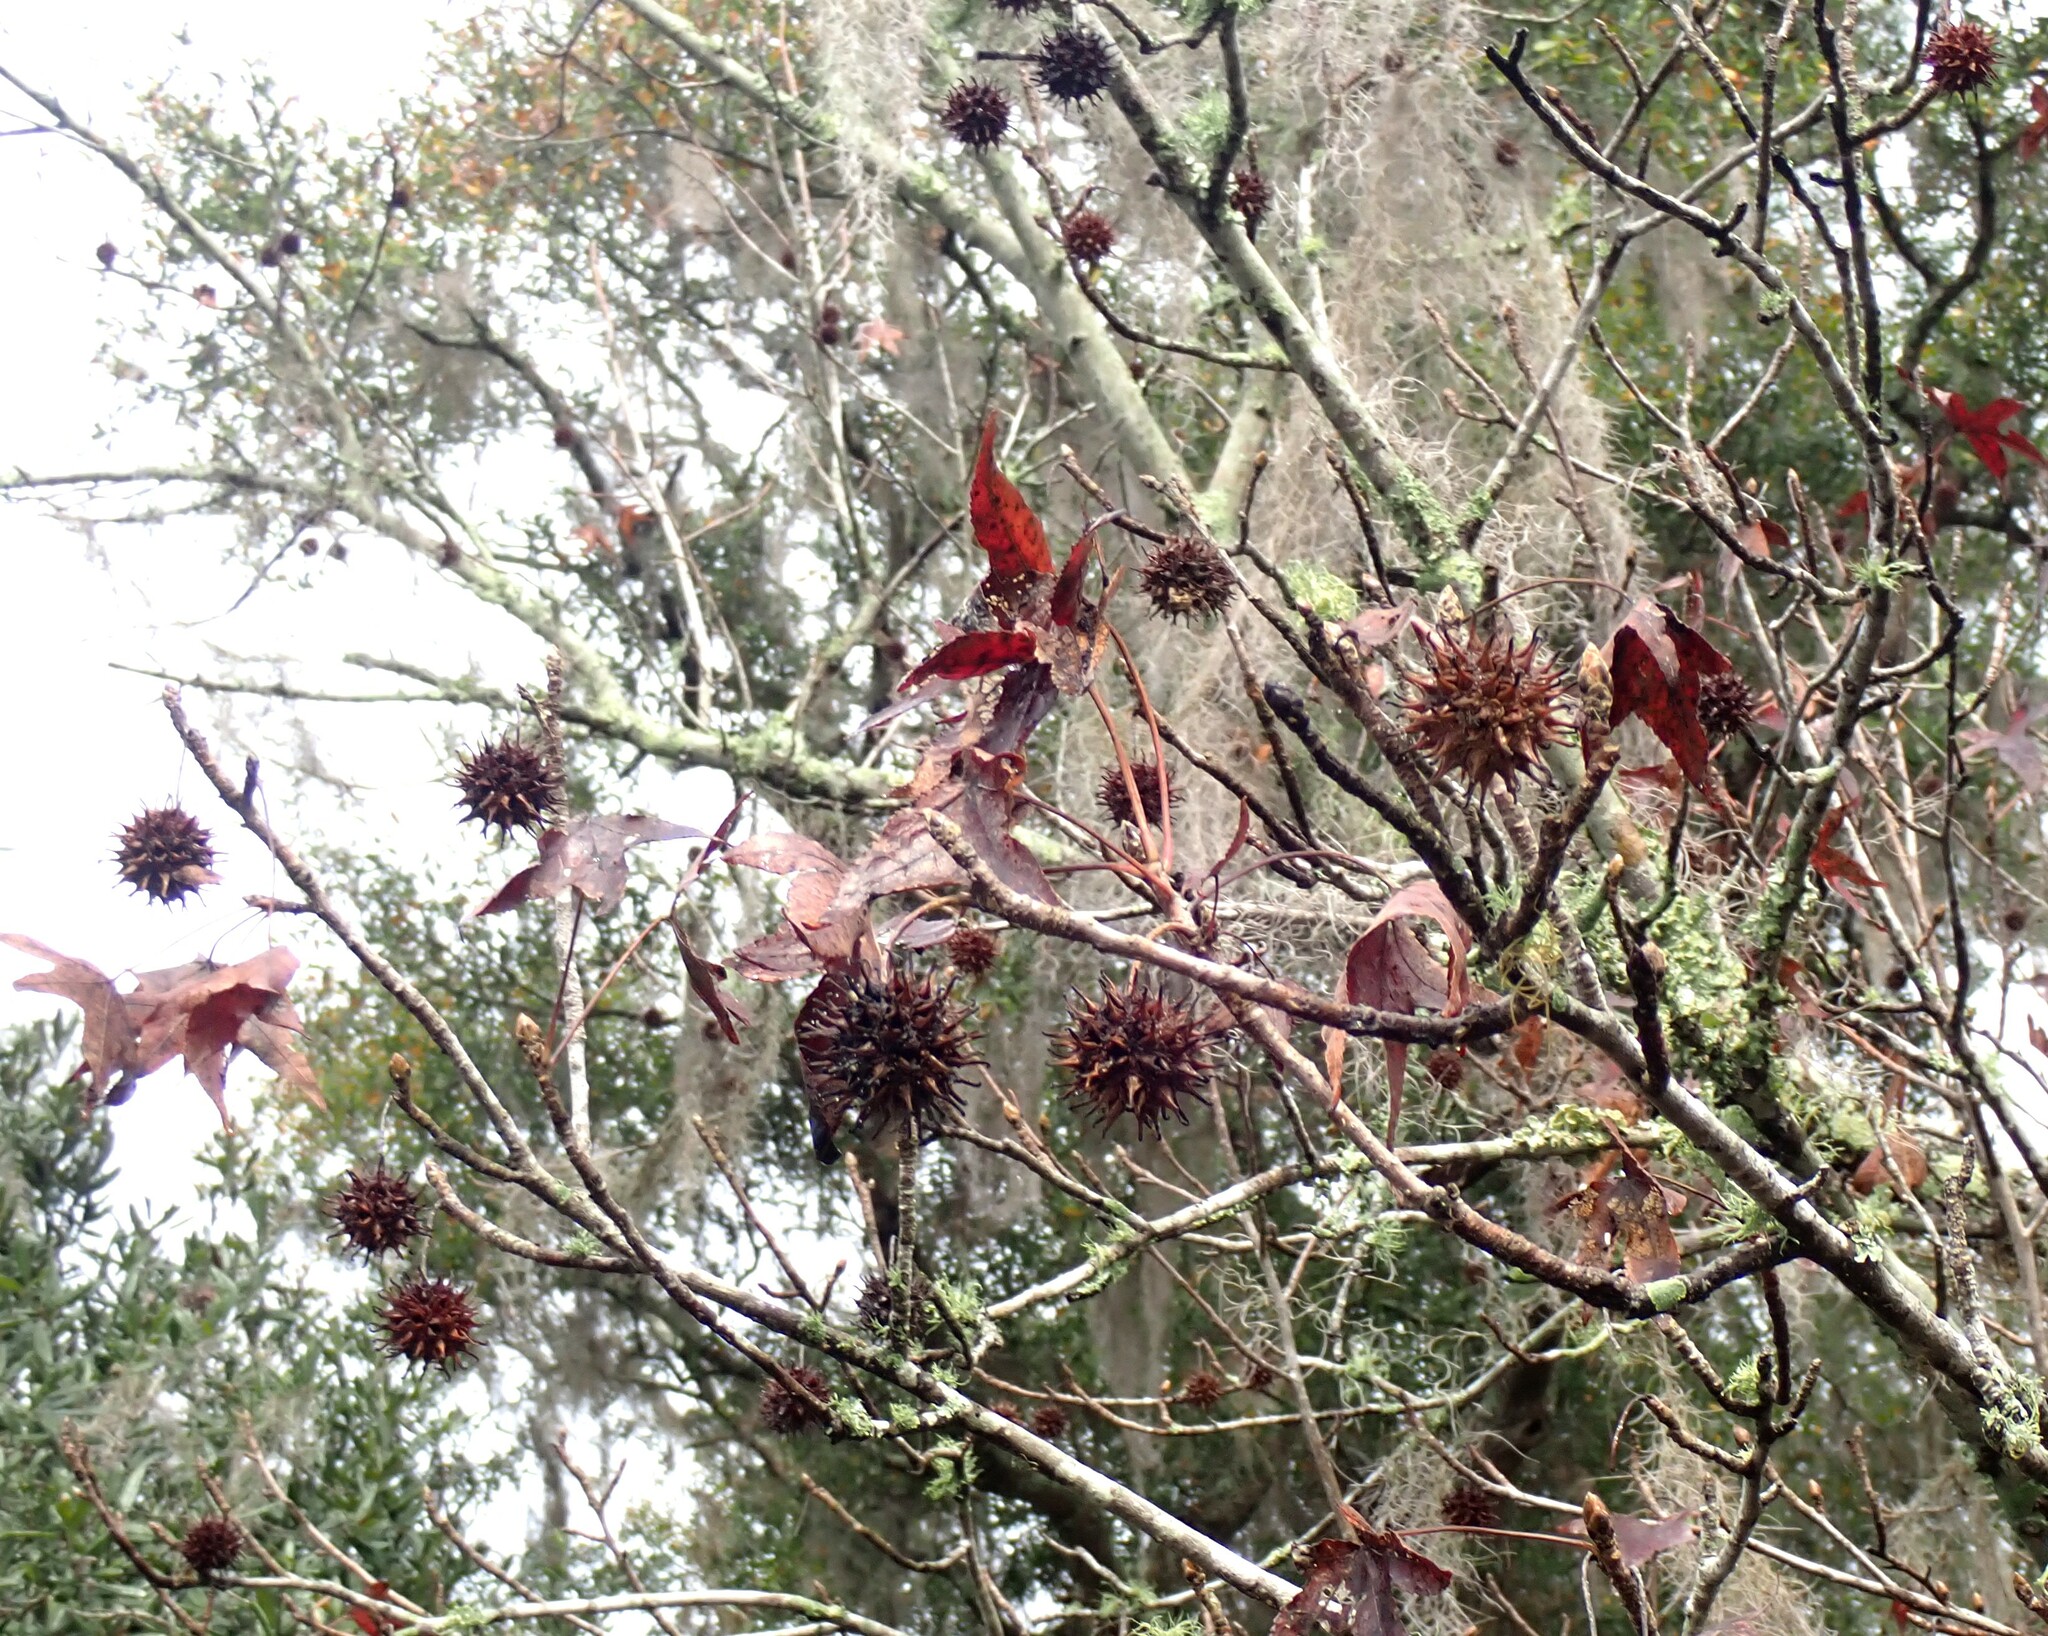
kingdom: Plantae
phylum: Tracheophyta
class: Magnoliopsida
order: Saxifragales
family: Altingiaceae
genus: Liquidambar
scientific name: Liquidambar styraciflua
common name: Sweet gum
